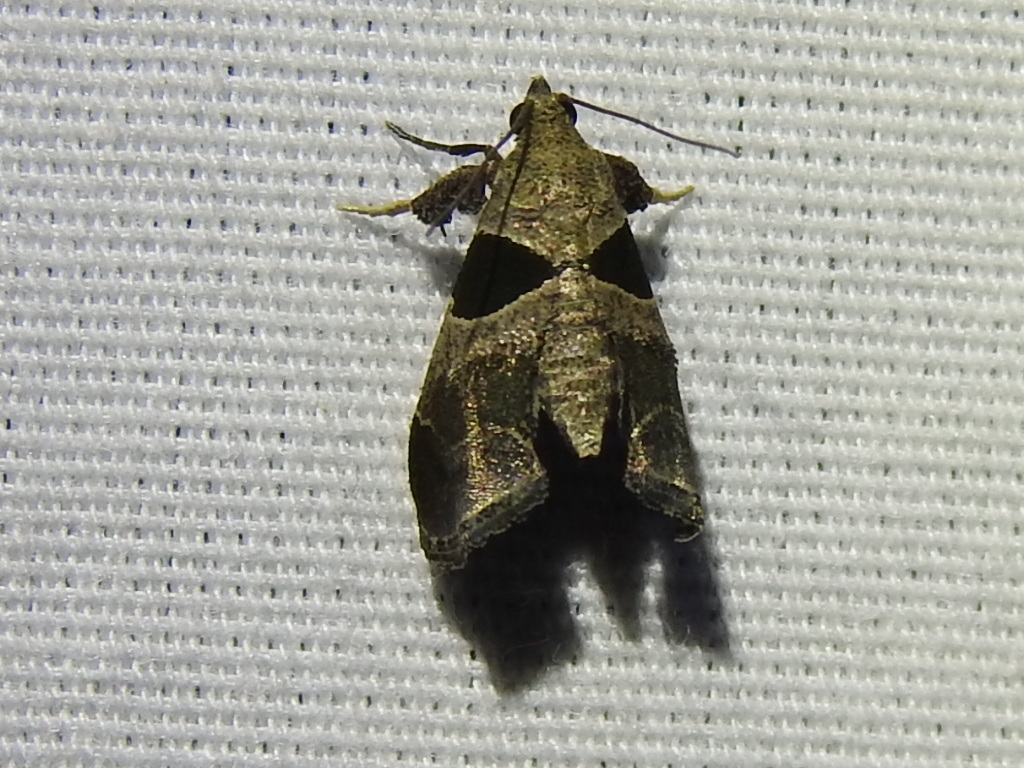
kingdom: Animalia
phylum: Arthropoda
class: Insecta
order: Lepidoptera
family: Pyralidae
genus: Tosale
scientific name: Tosale oviplagalis
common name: Dimorphic tosale moth
